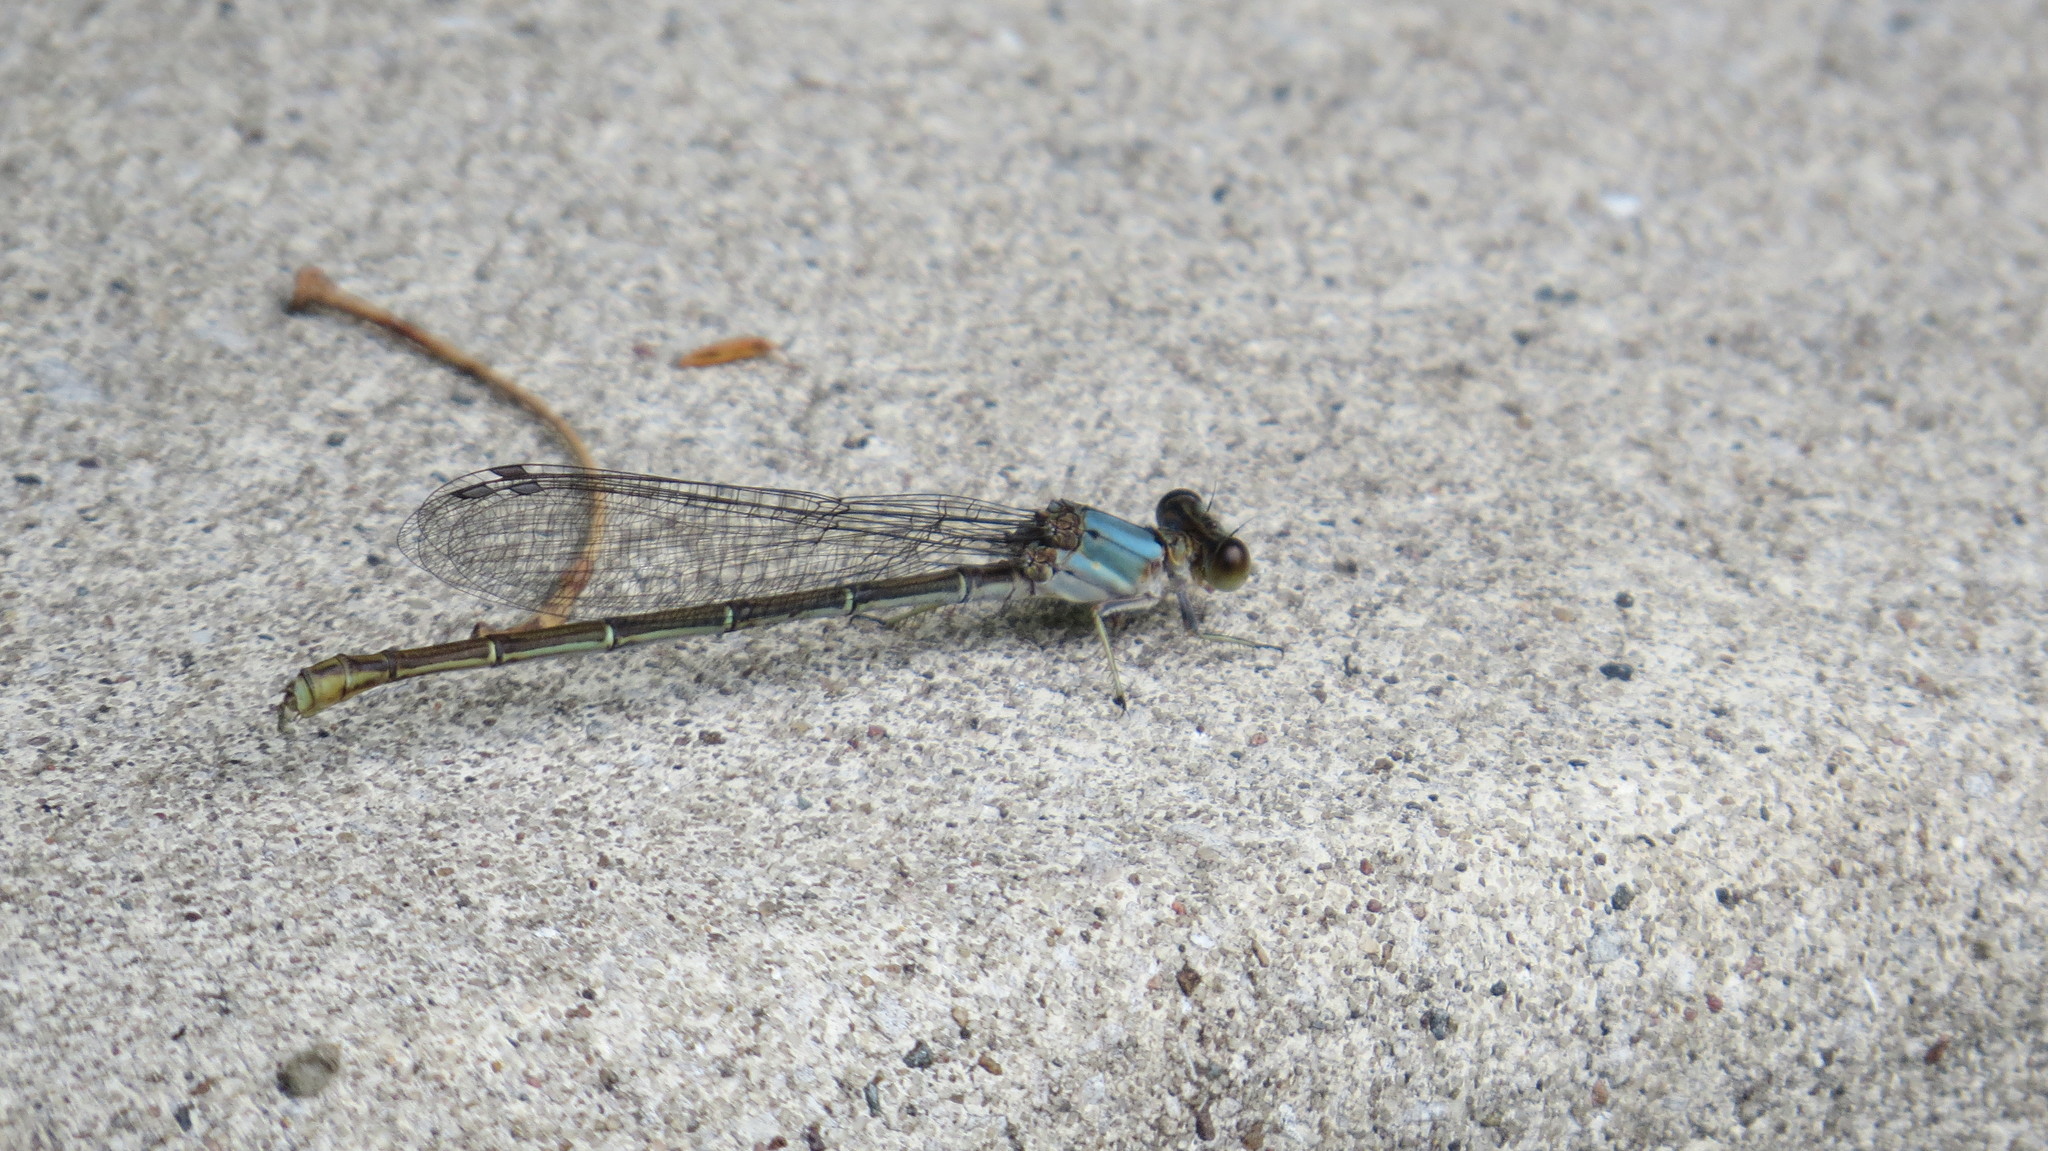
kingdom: Animalia
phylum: Arthropoda
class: Insecta
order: Odonata
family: Coenagrionidae
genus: Argia
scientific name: Argia moesta
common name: Powdered dancer
